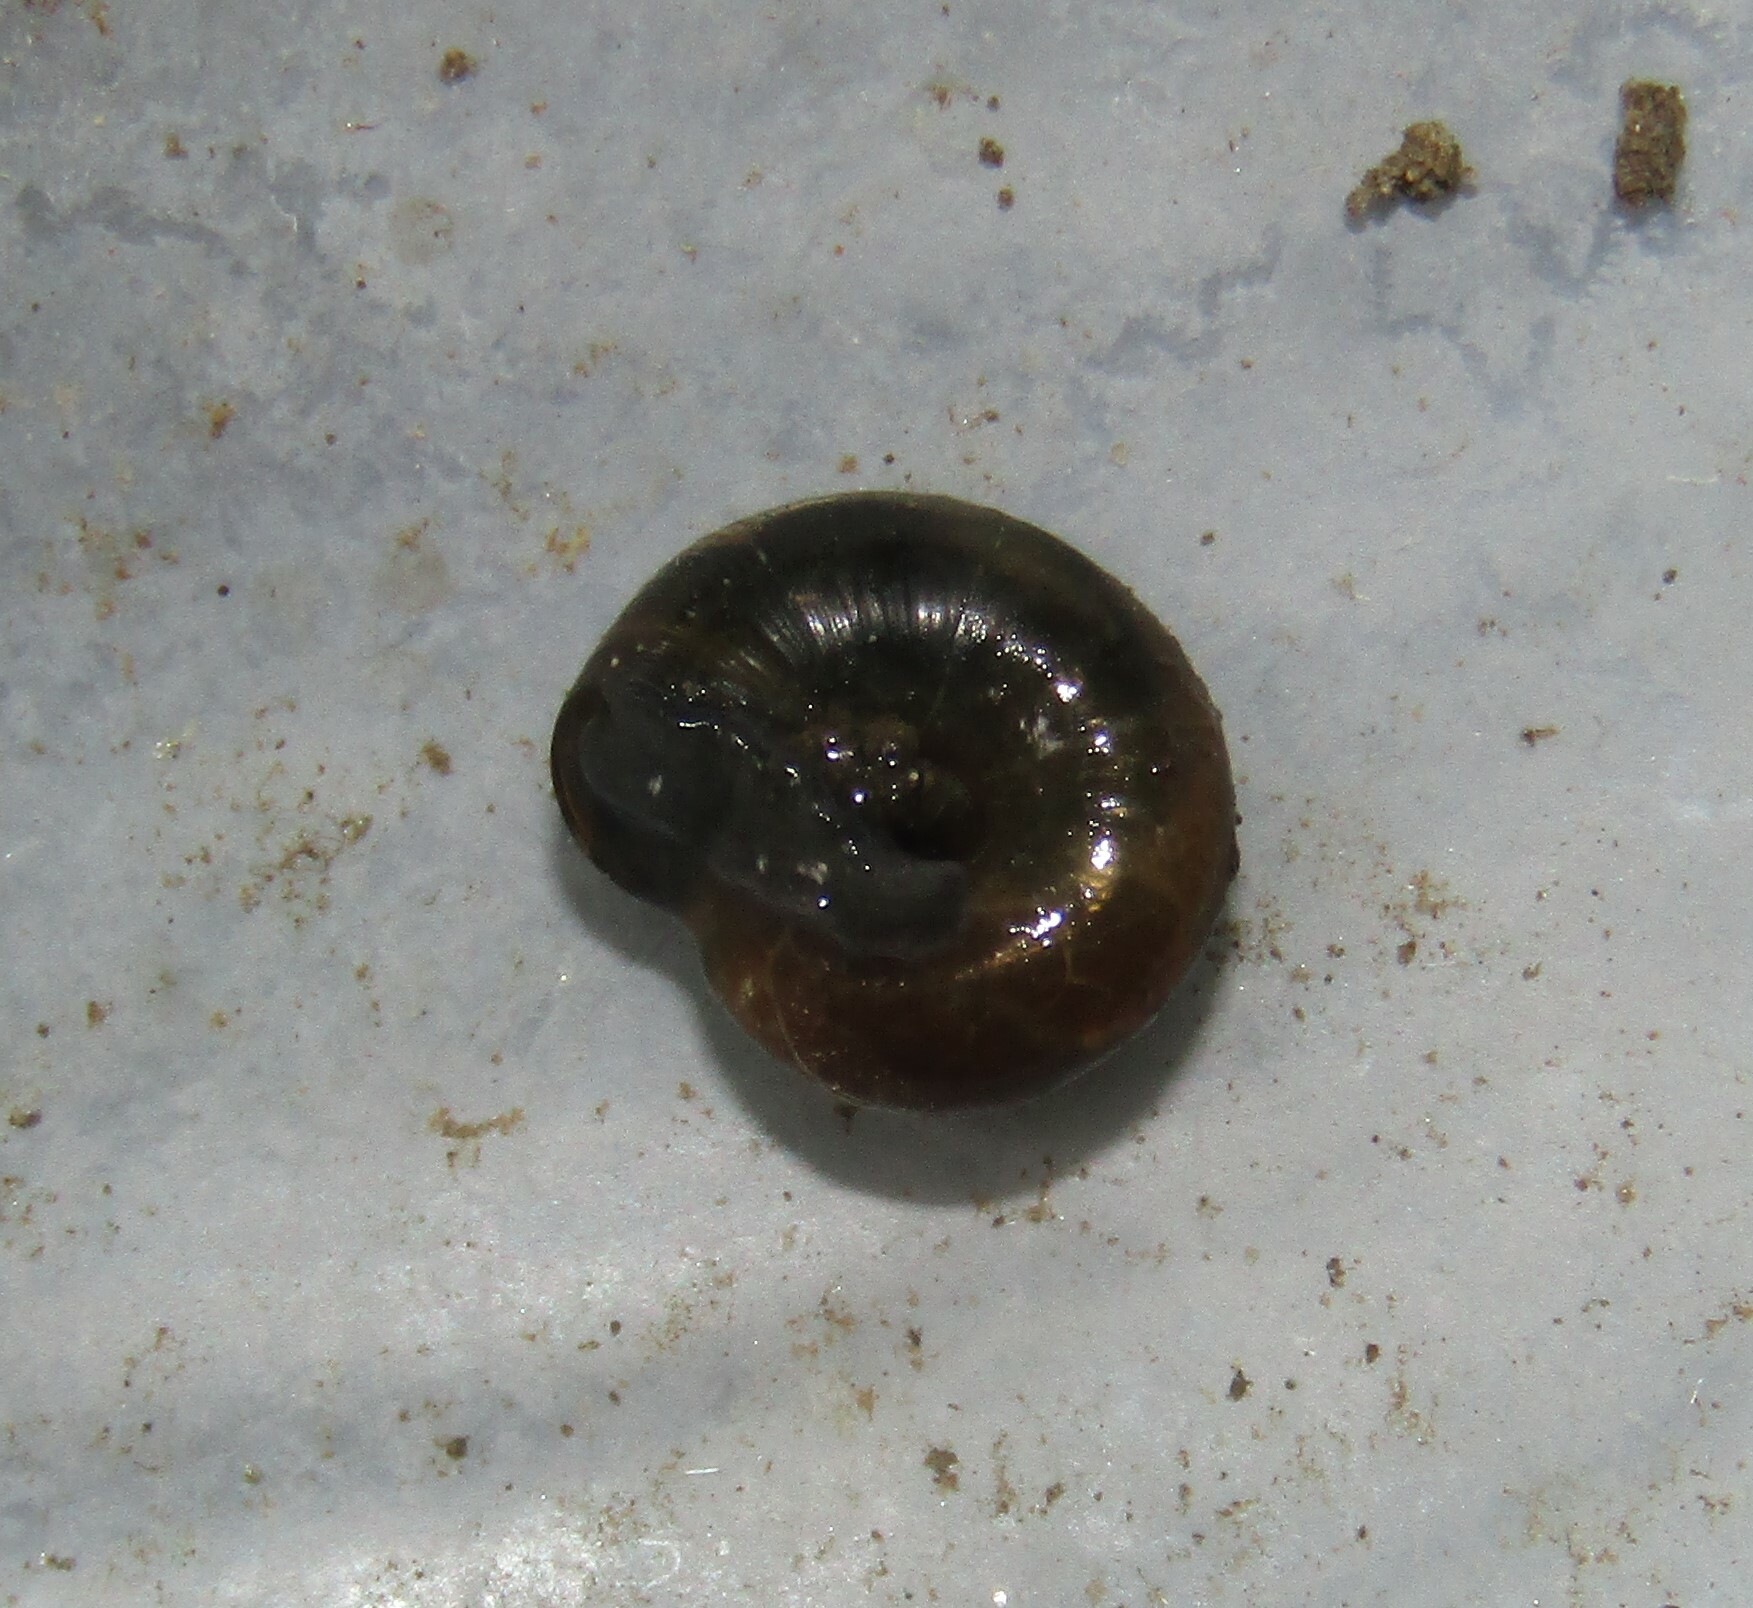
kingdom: Animalia
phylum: Mollusca
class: Gastropoda
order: Stylommatophora
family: Gastrodontidae
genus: Zonitoides
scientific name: Zonitoides nitidus
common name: Shiny glass snail
